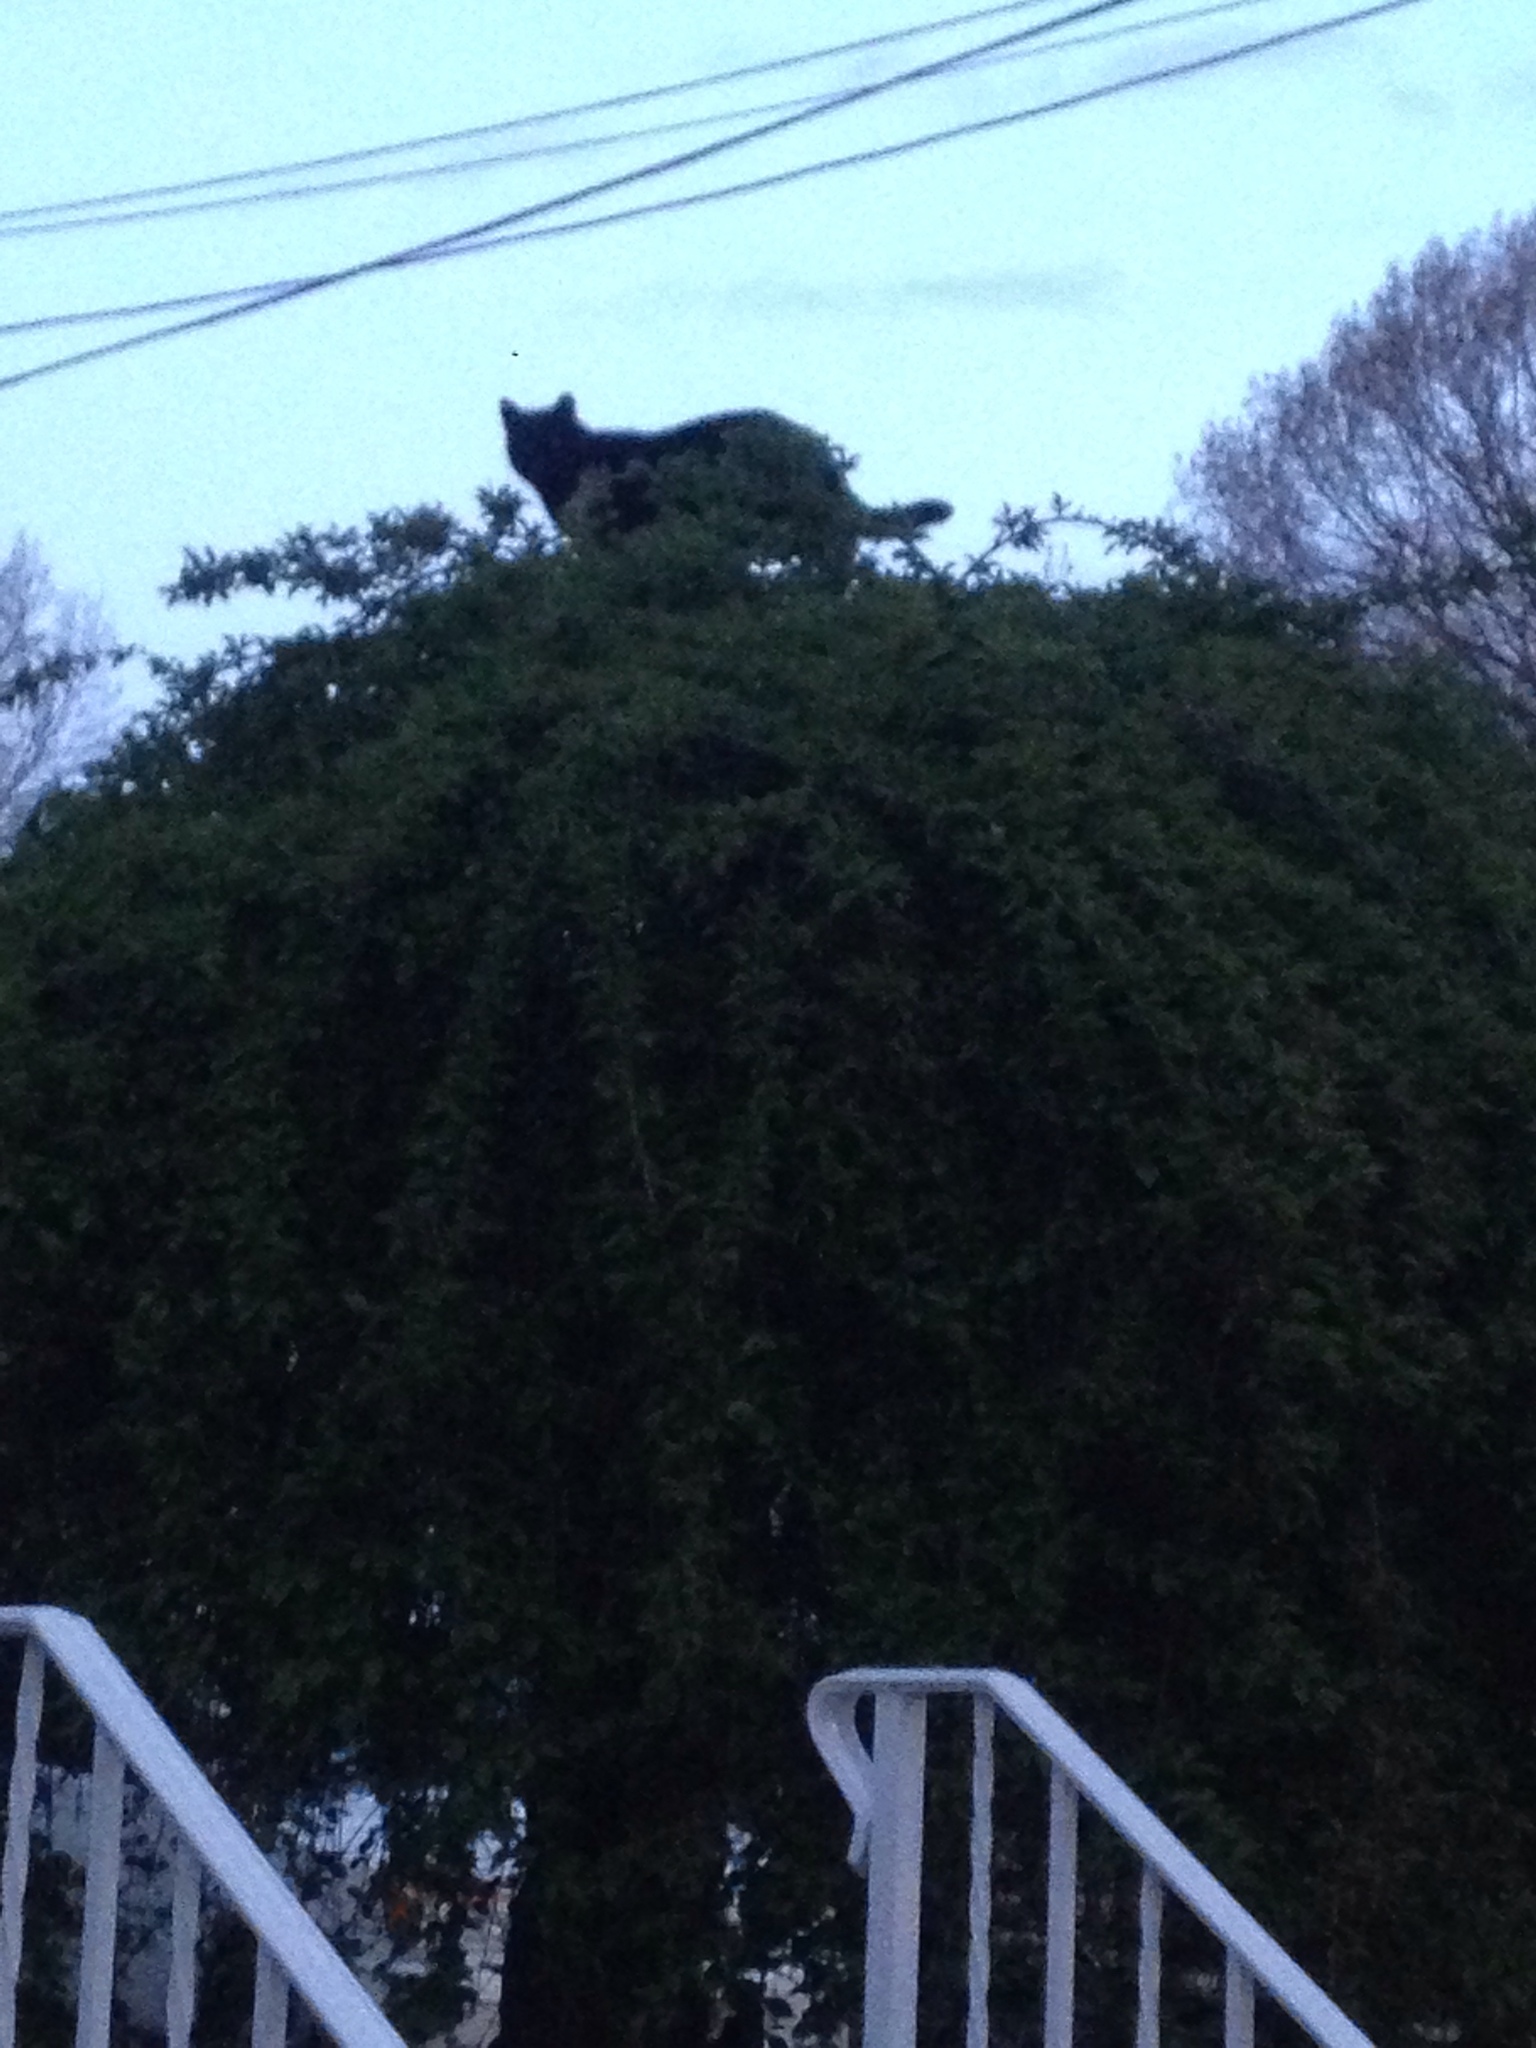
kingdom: Animalia
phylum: Chordata
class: Mammalia
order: Carnivora
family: Felidae
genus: Felis
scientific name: Felis catus
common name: Domestic cat
